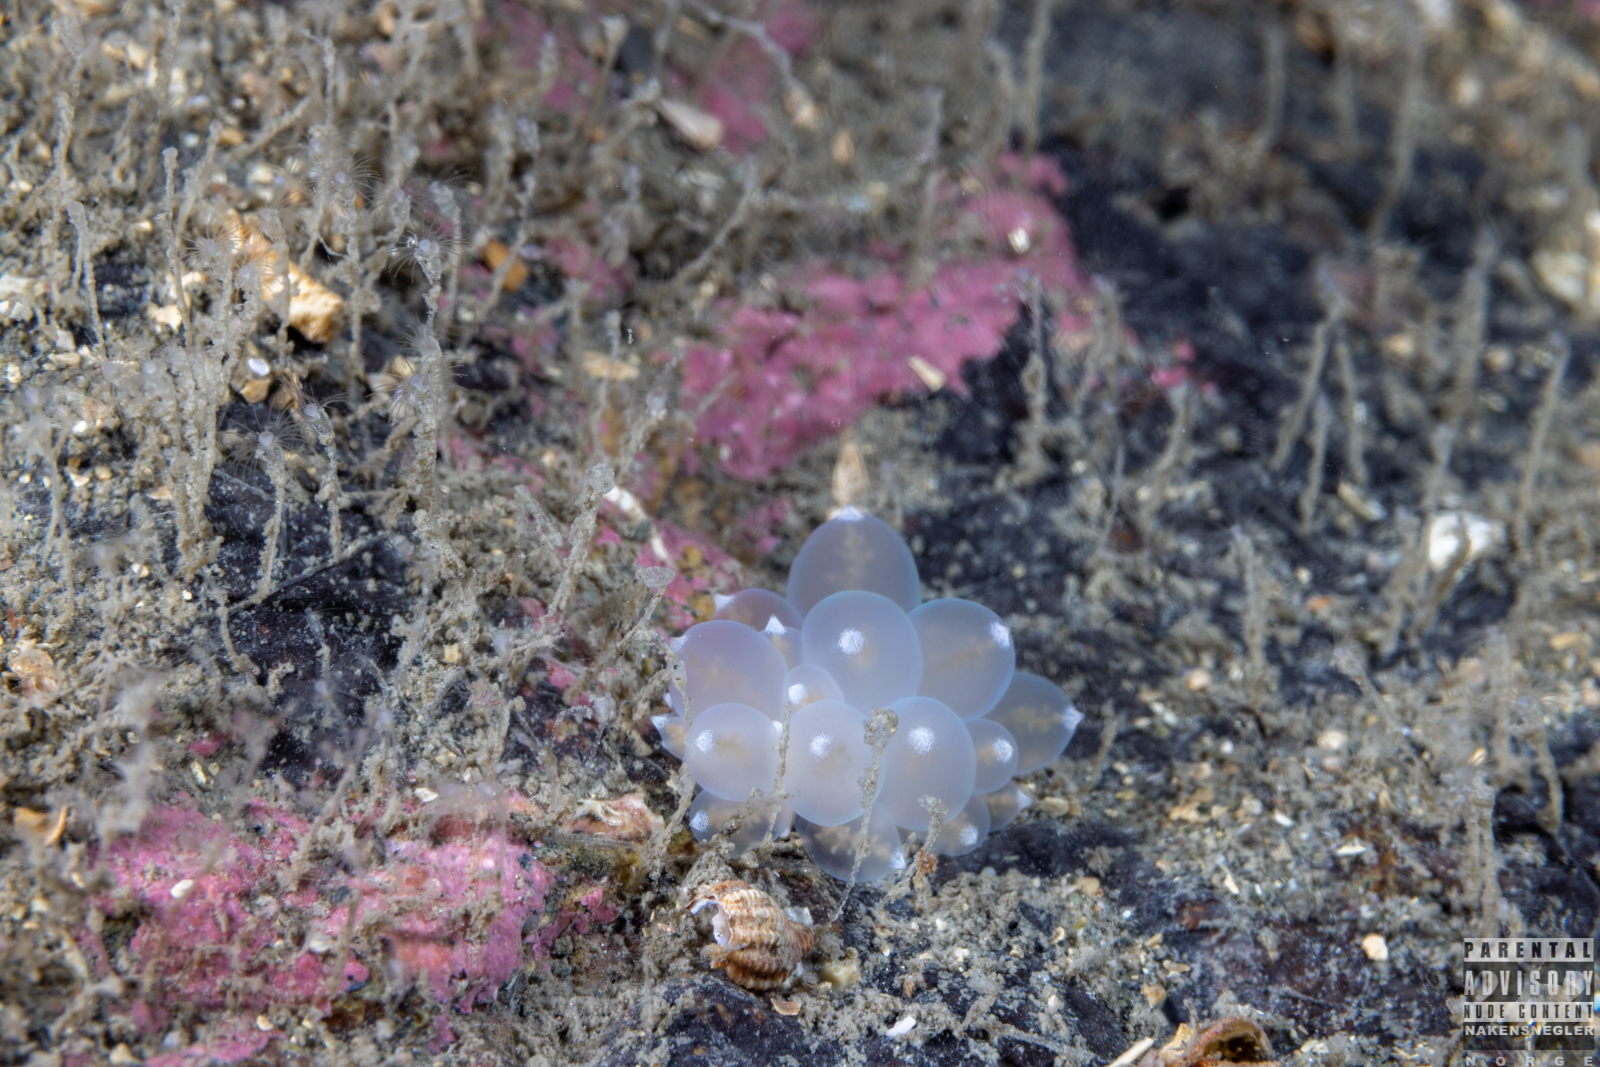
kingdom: Animalia
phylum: Mollusca
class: Gastropoda
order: Nudibranchia
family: Eubranchidae
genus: Amphorina
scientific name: Amphorina andra
